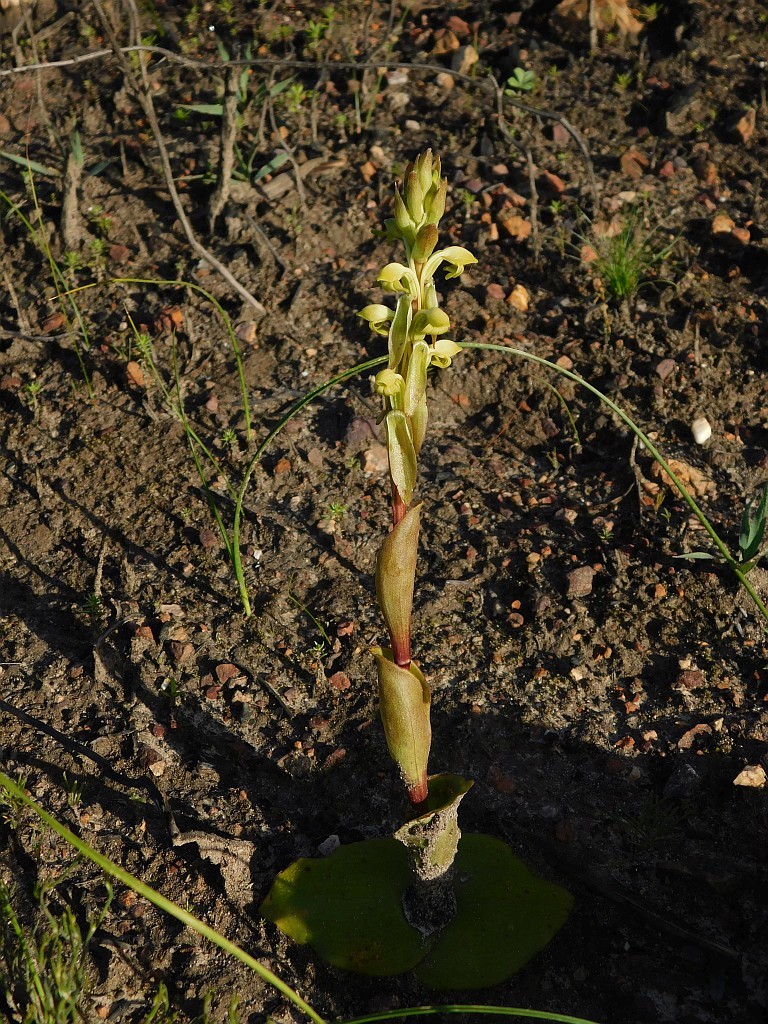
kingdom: Plantae
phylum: Tracheophyta
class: Liliopsida
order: Asparagales
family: Orchidaceae
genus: Satyrium
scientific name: Satyrium bicorne
